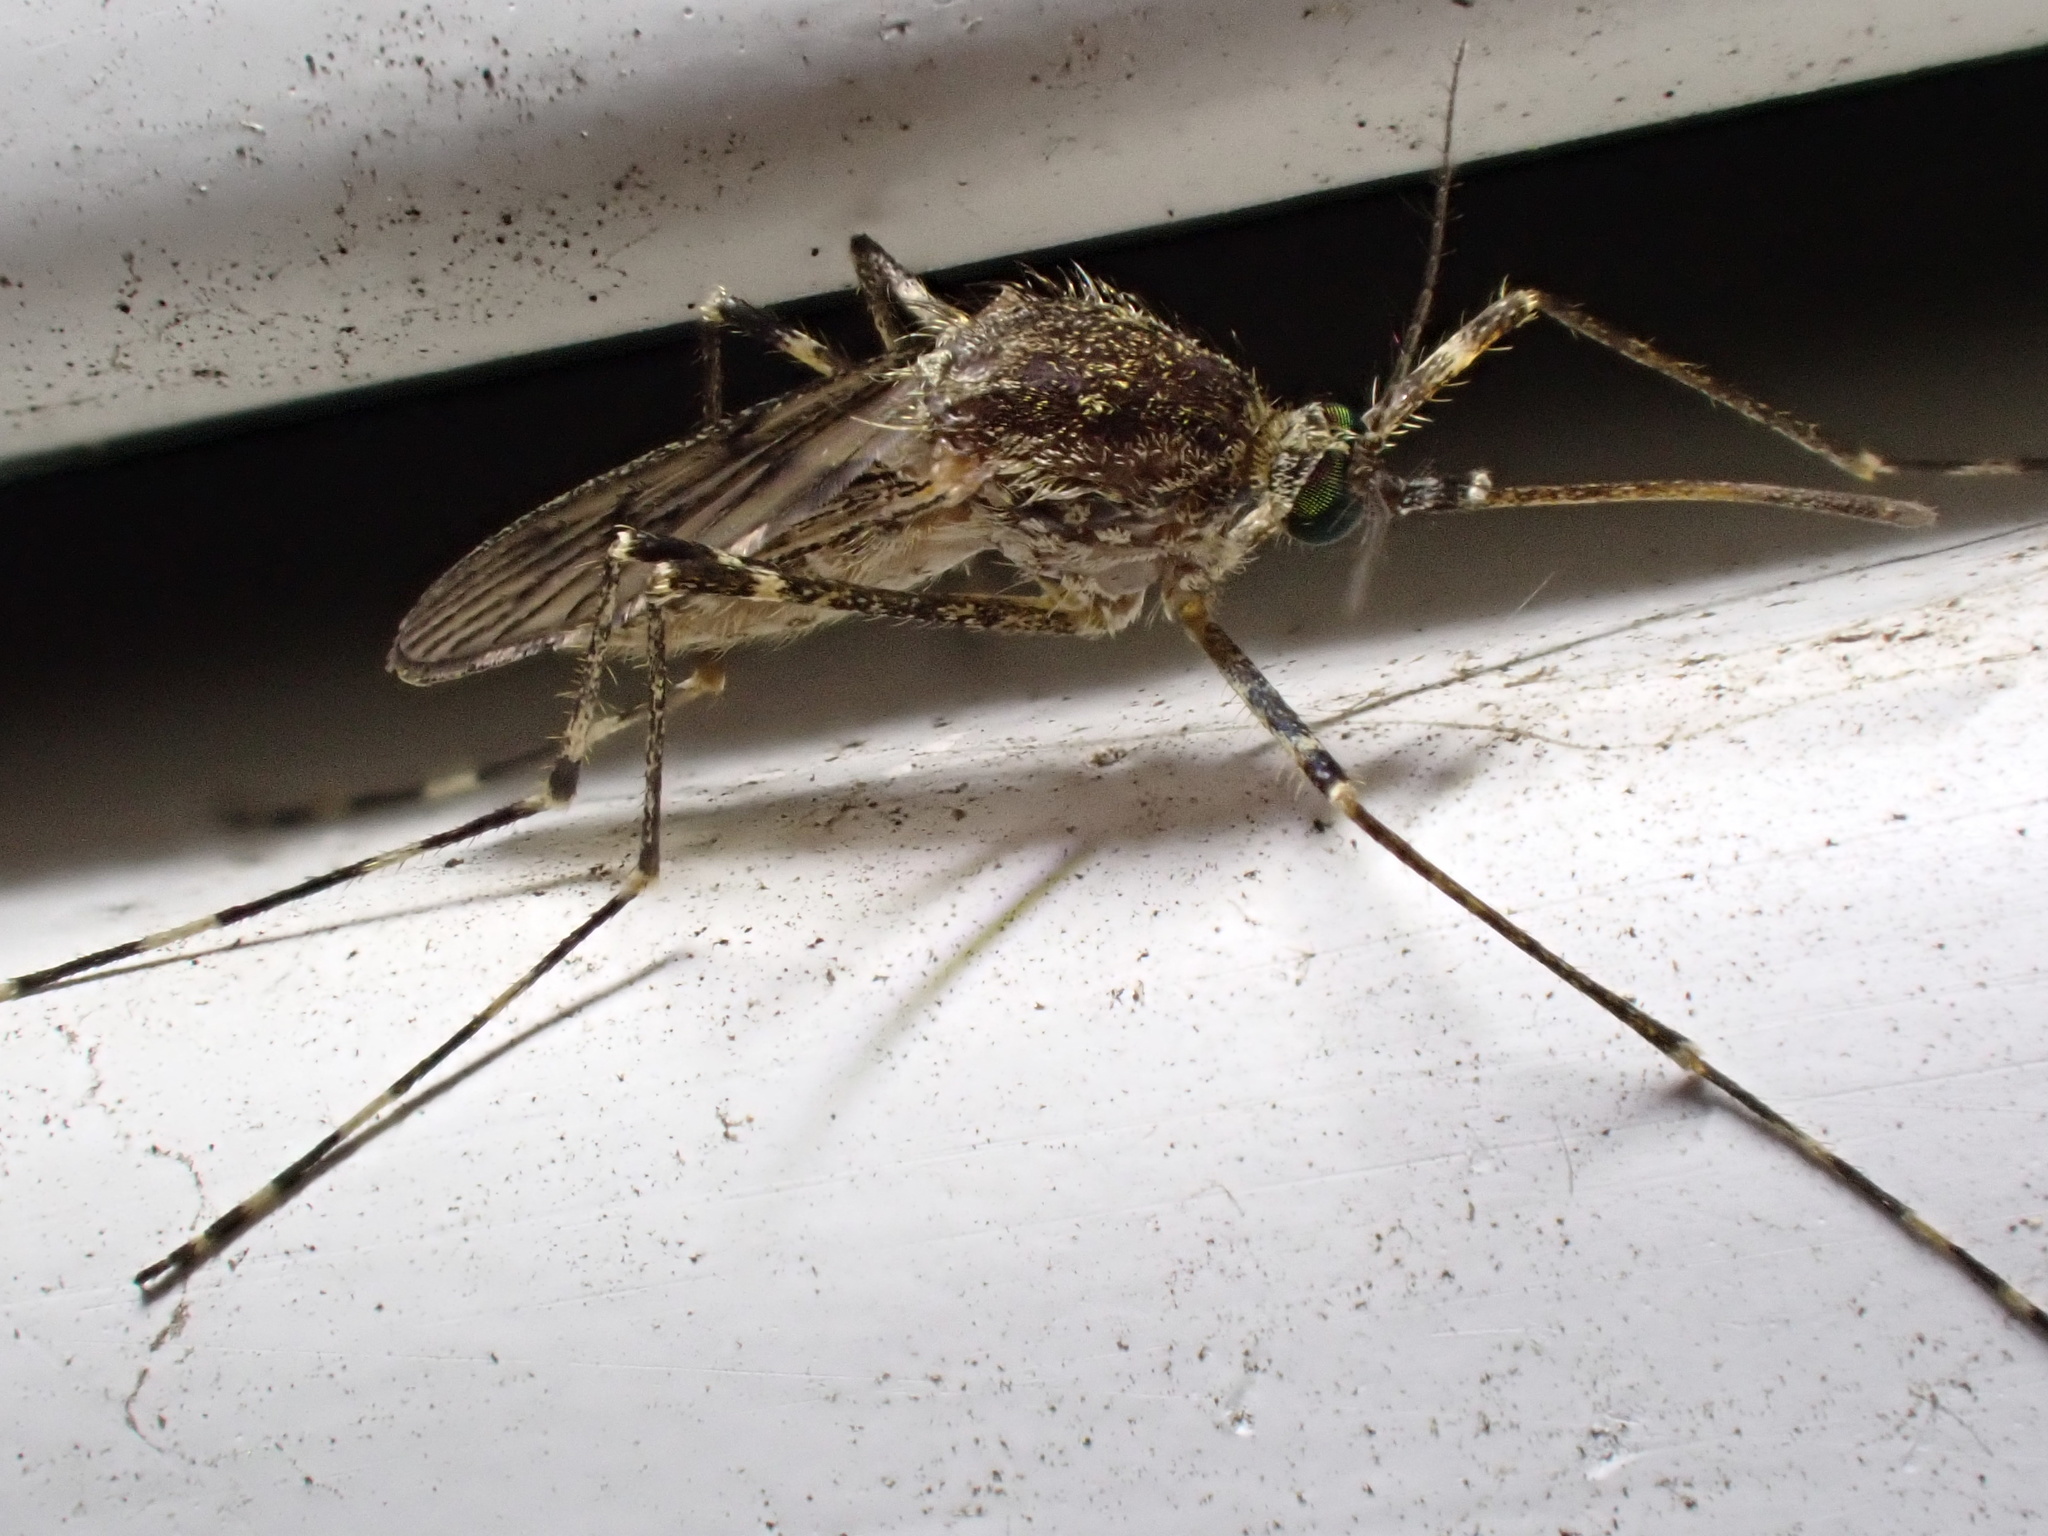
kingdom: Animalia
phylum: Arthropoda
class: Insecta
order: Diptera
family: Culicidae
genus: Culiseta
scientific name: Culiseta annulata
